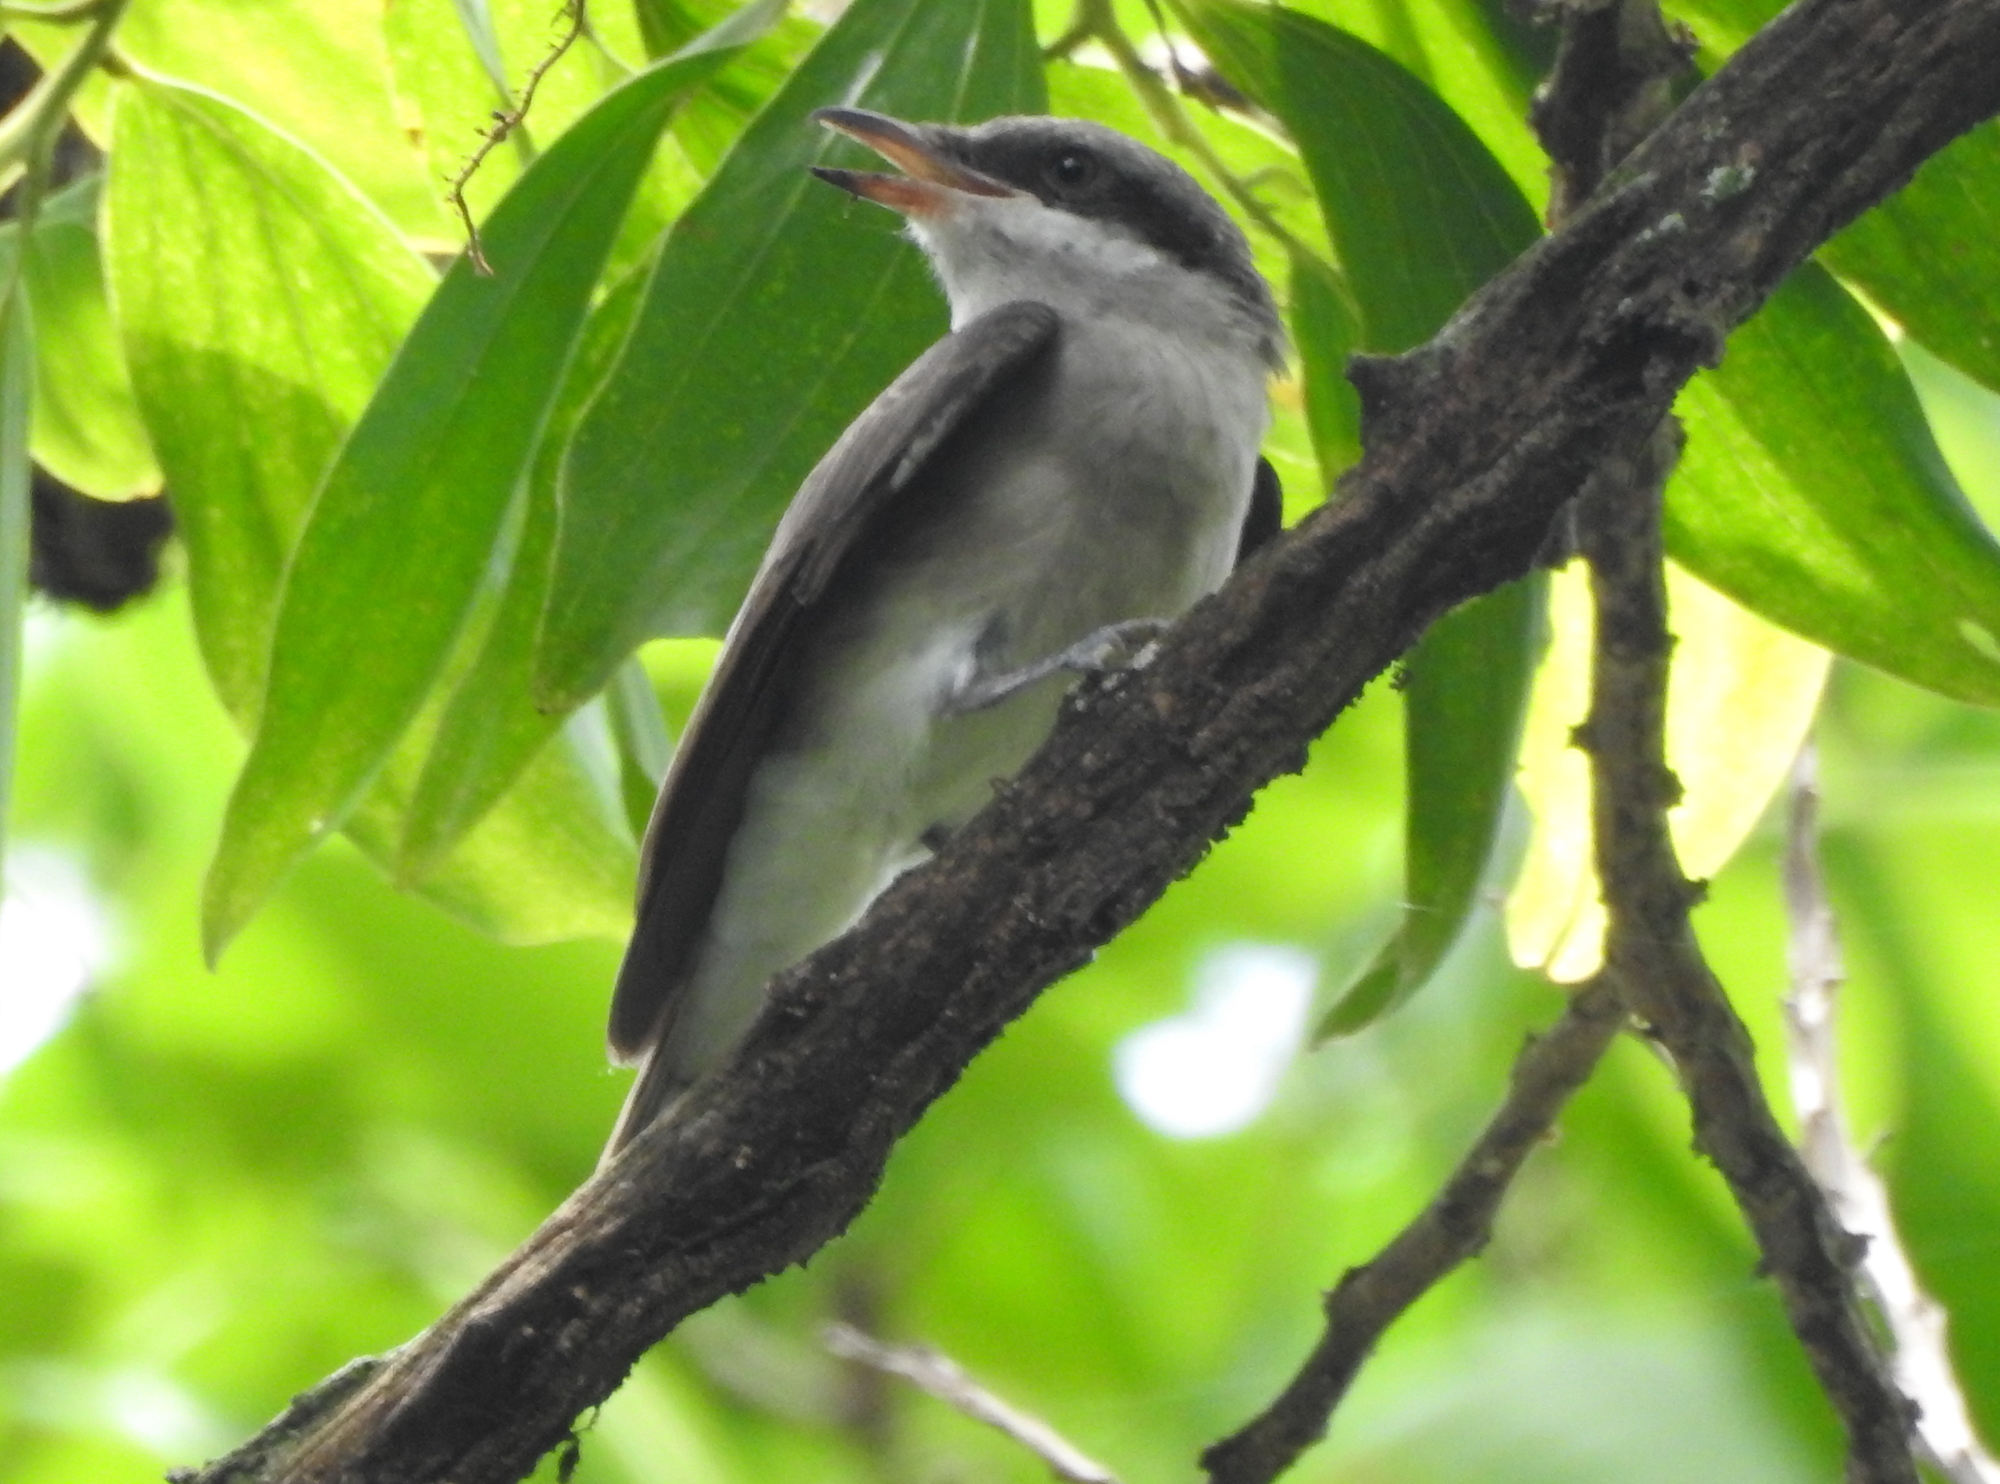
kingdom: Animalia
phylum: Chordata
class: Aves
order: Passeriformes
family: Tephrodornithidae
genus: Tephrodornis
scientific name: Tephrodornis virgatus
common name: Large woodshrike
